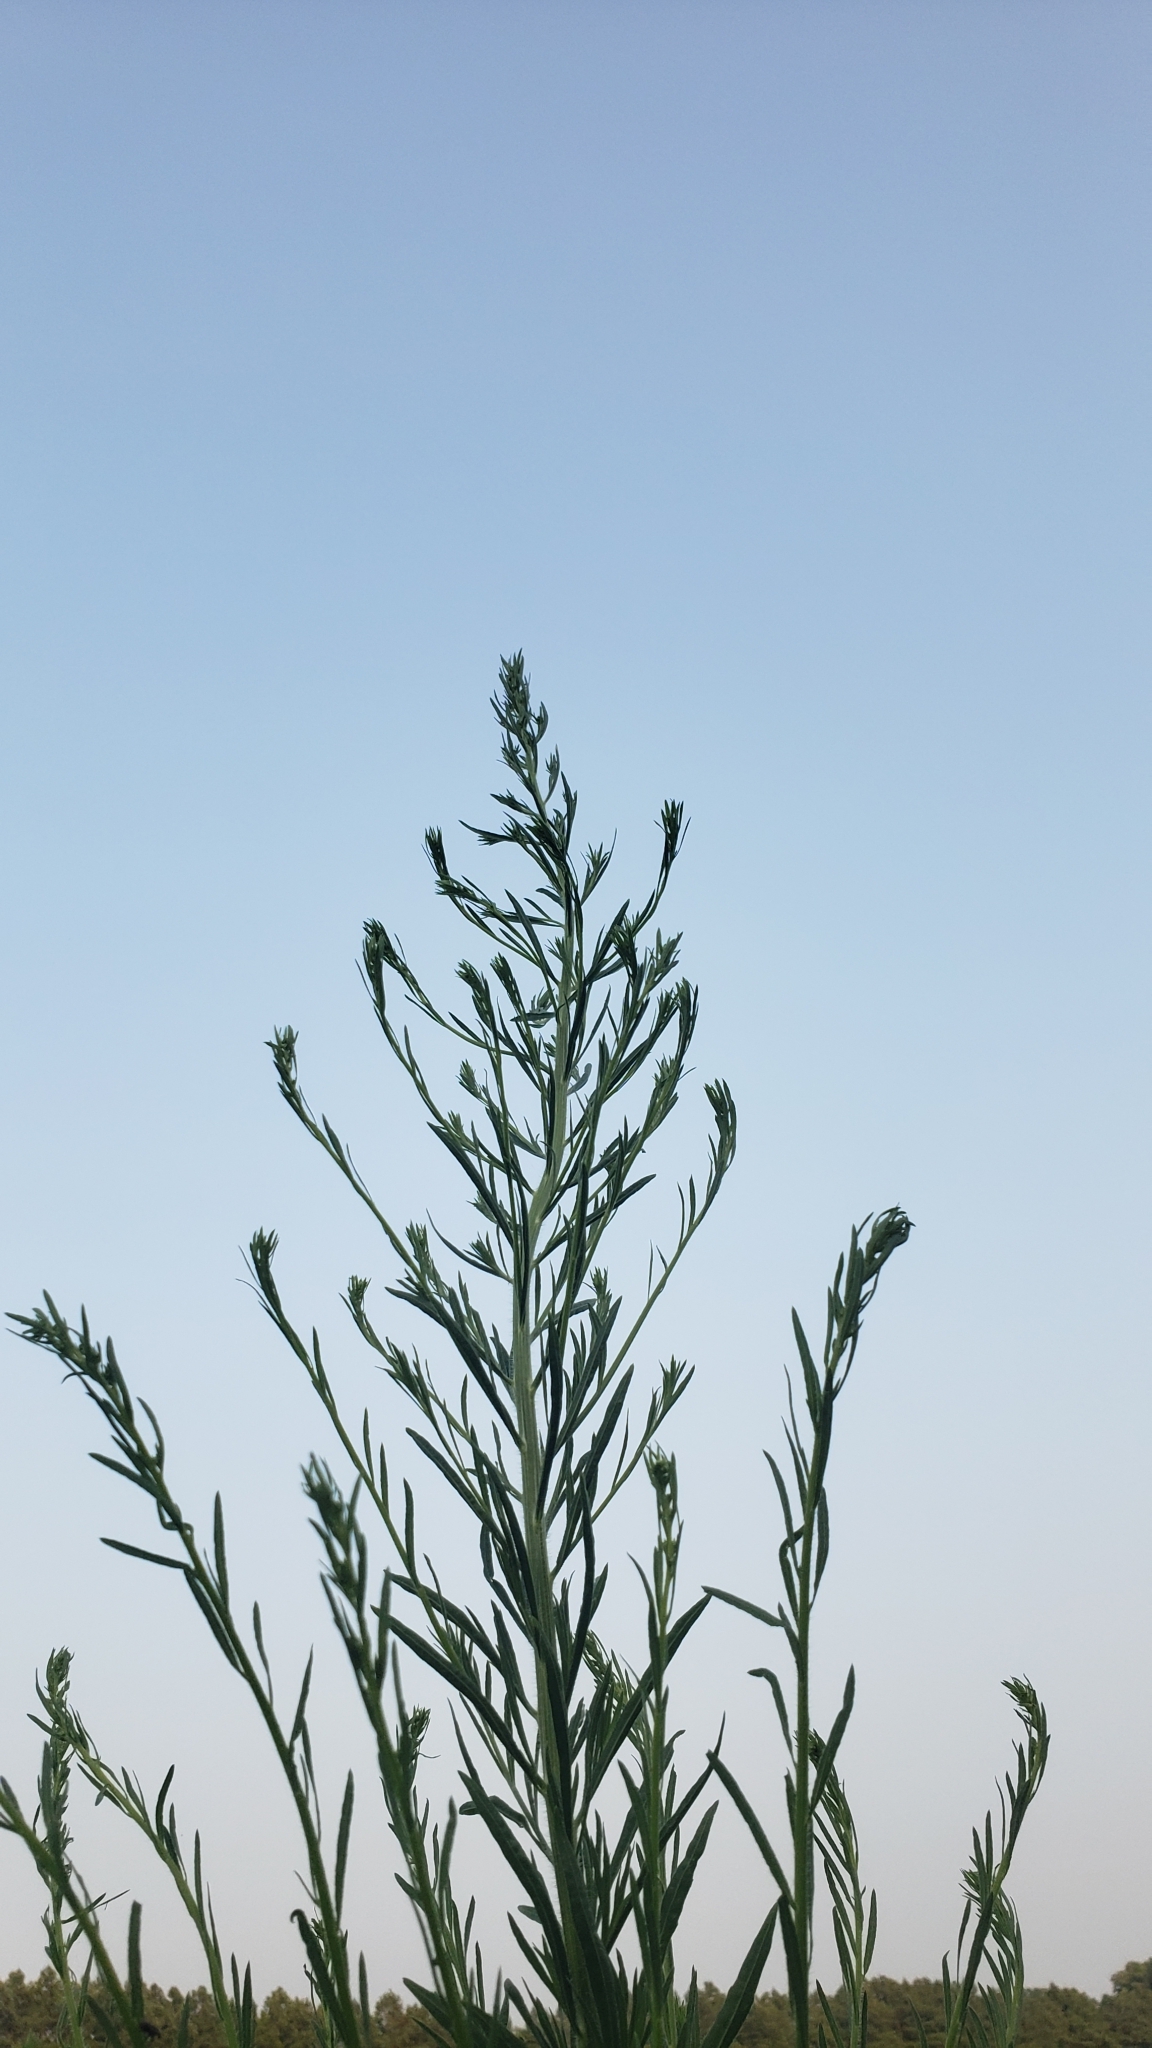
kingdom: Plantae
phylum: Tracheophyta
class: Magnoliopsida
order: Asterales
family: Asteraceae
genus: Erigeron
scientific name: Erigeron canadensis
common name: Canadian fleabane
